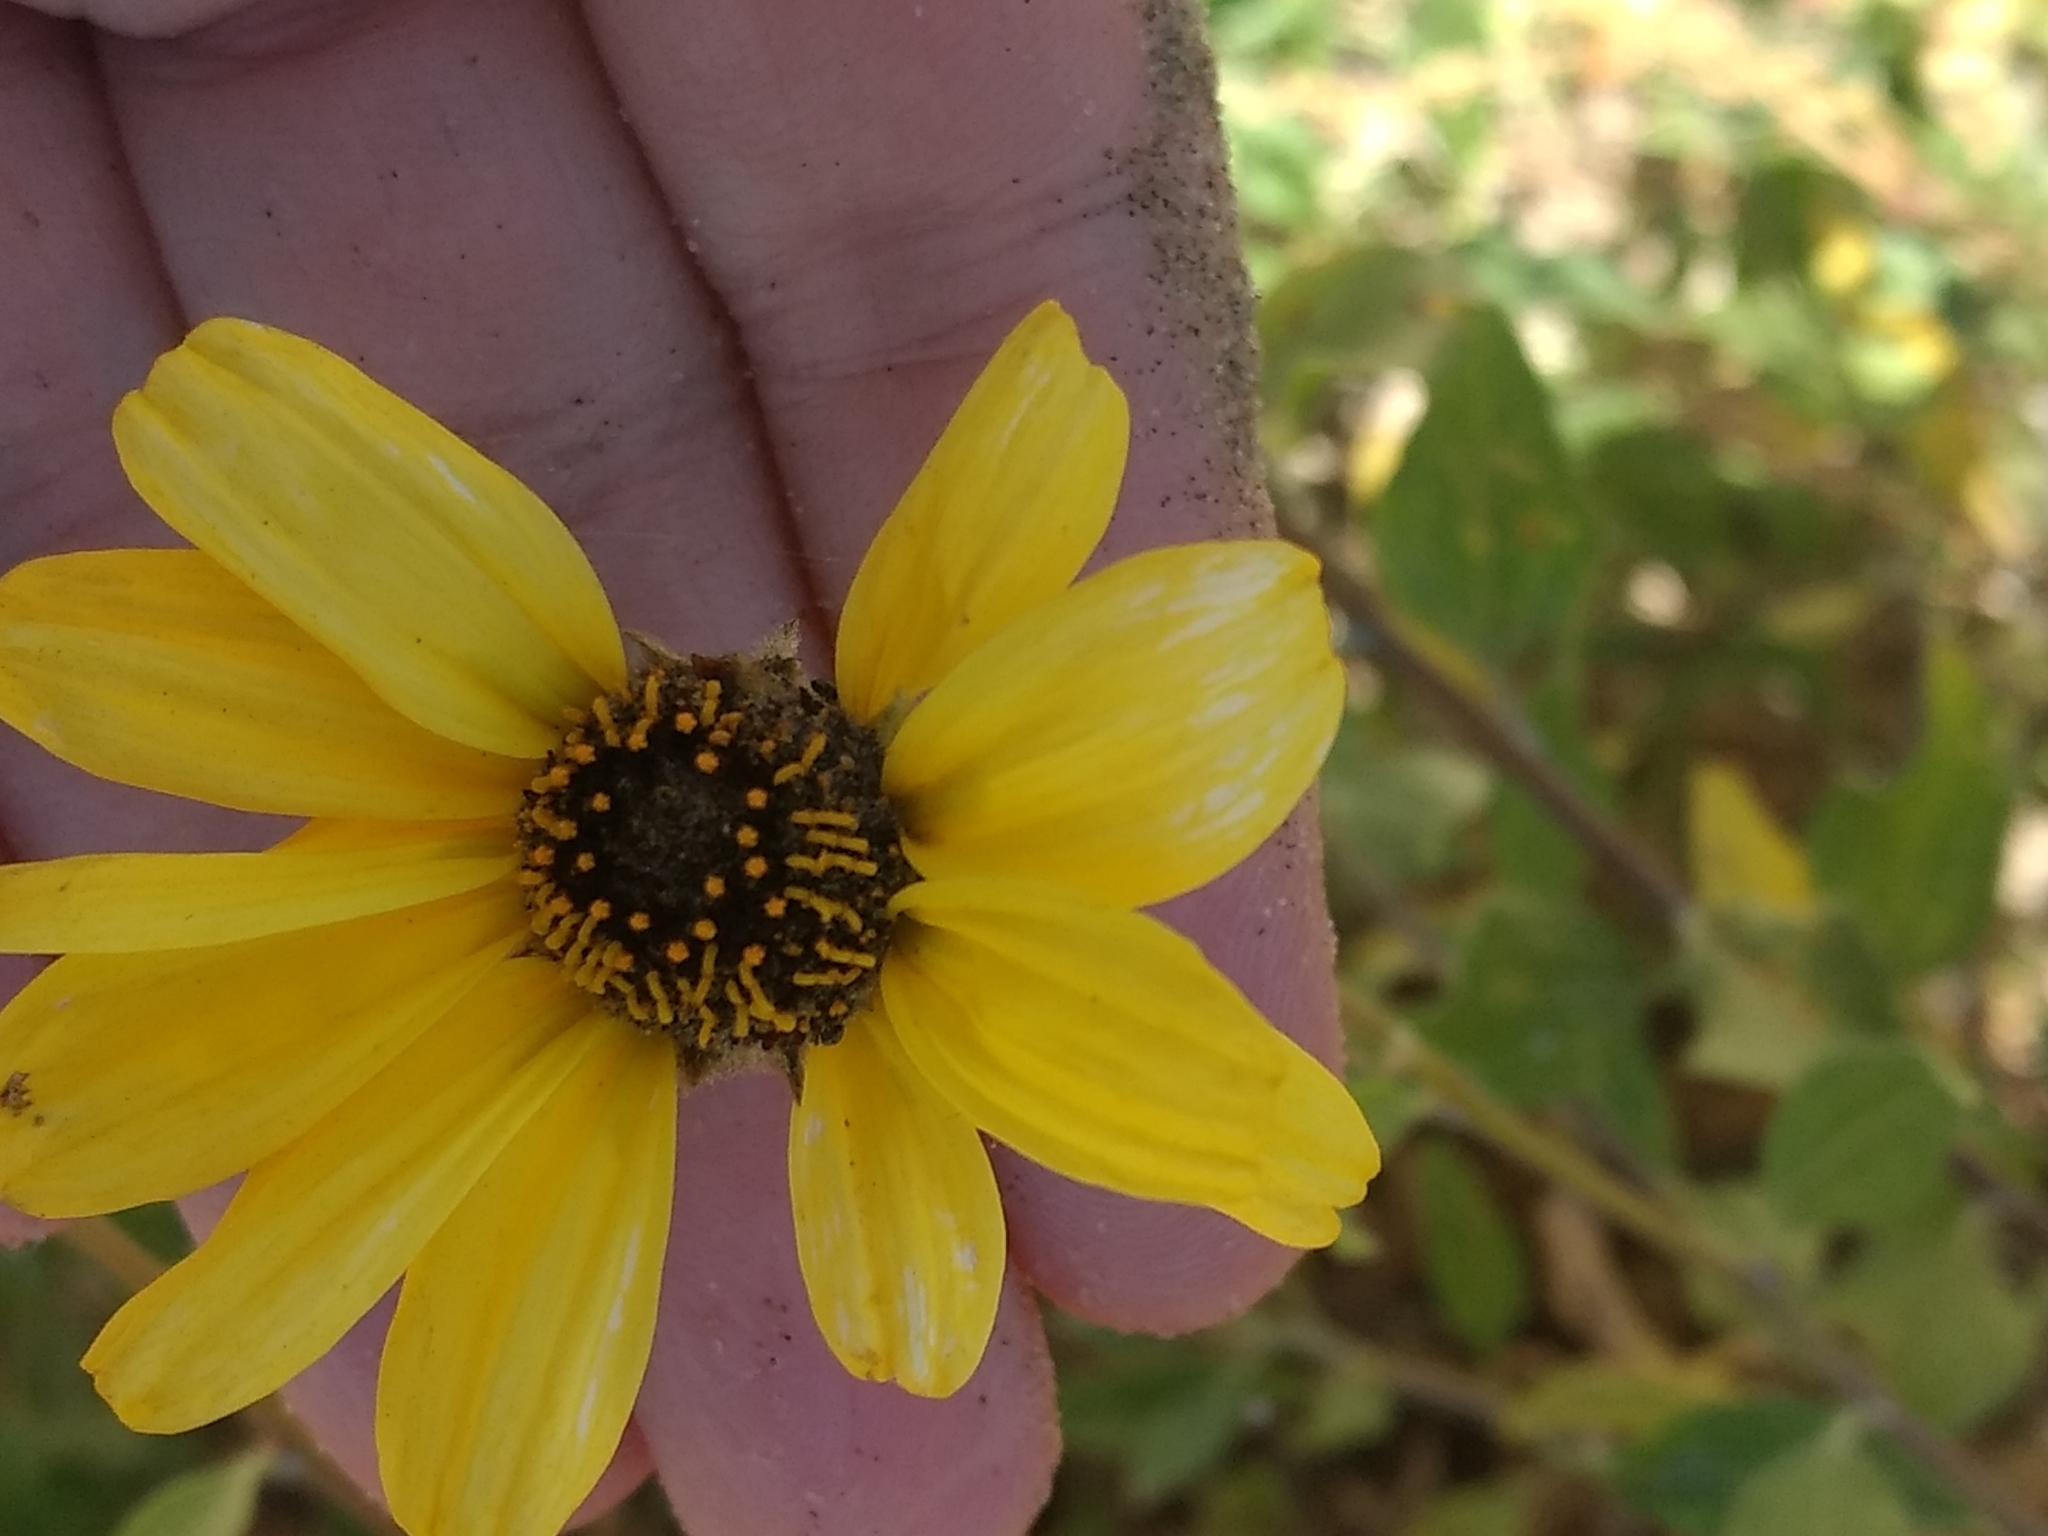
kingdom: Plantae
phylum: Tracheophyta
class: Magnoliopsida
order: Asterales
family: Asteraceae
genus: Encelia
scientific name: Encelia californica
